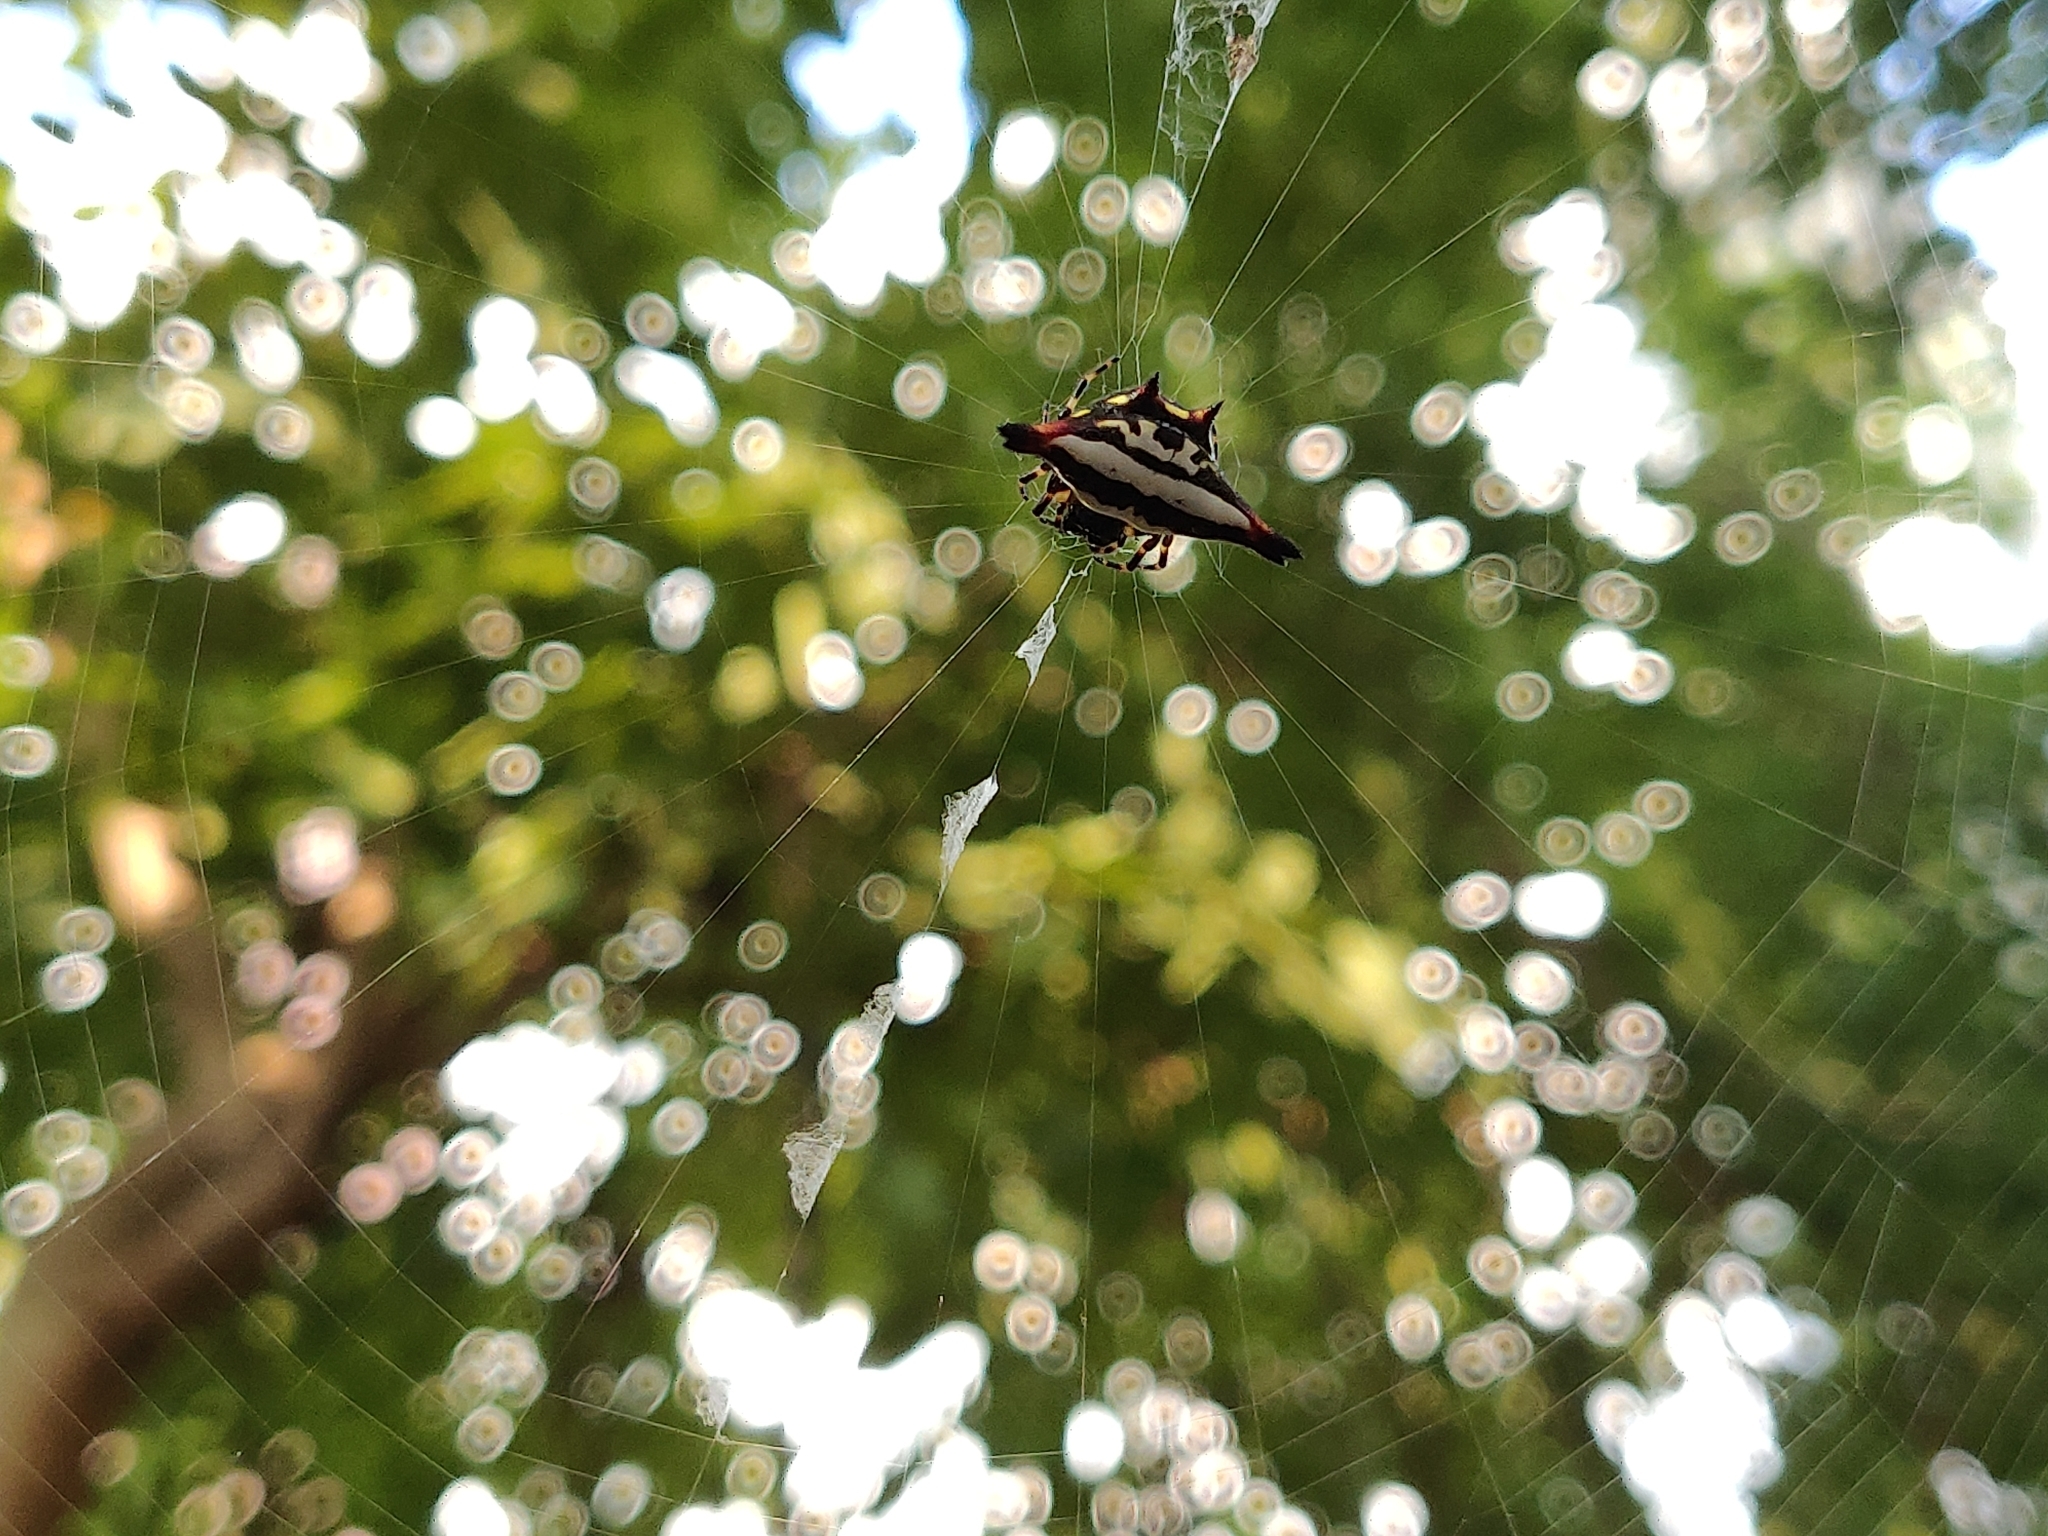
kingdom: Animalia
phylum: Arthropoda
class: Arachnida
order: Araneae
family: Araneidae
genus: Gasteracantha
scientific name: Gasteracantha geminata
